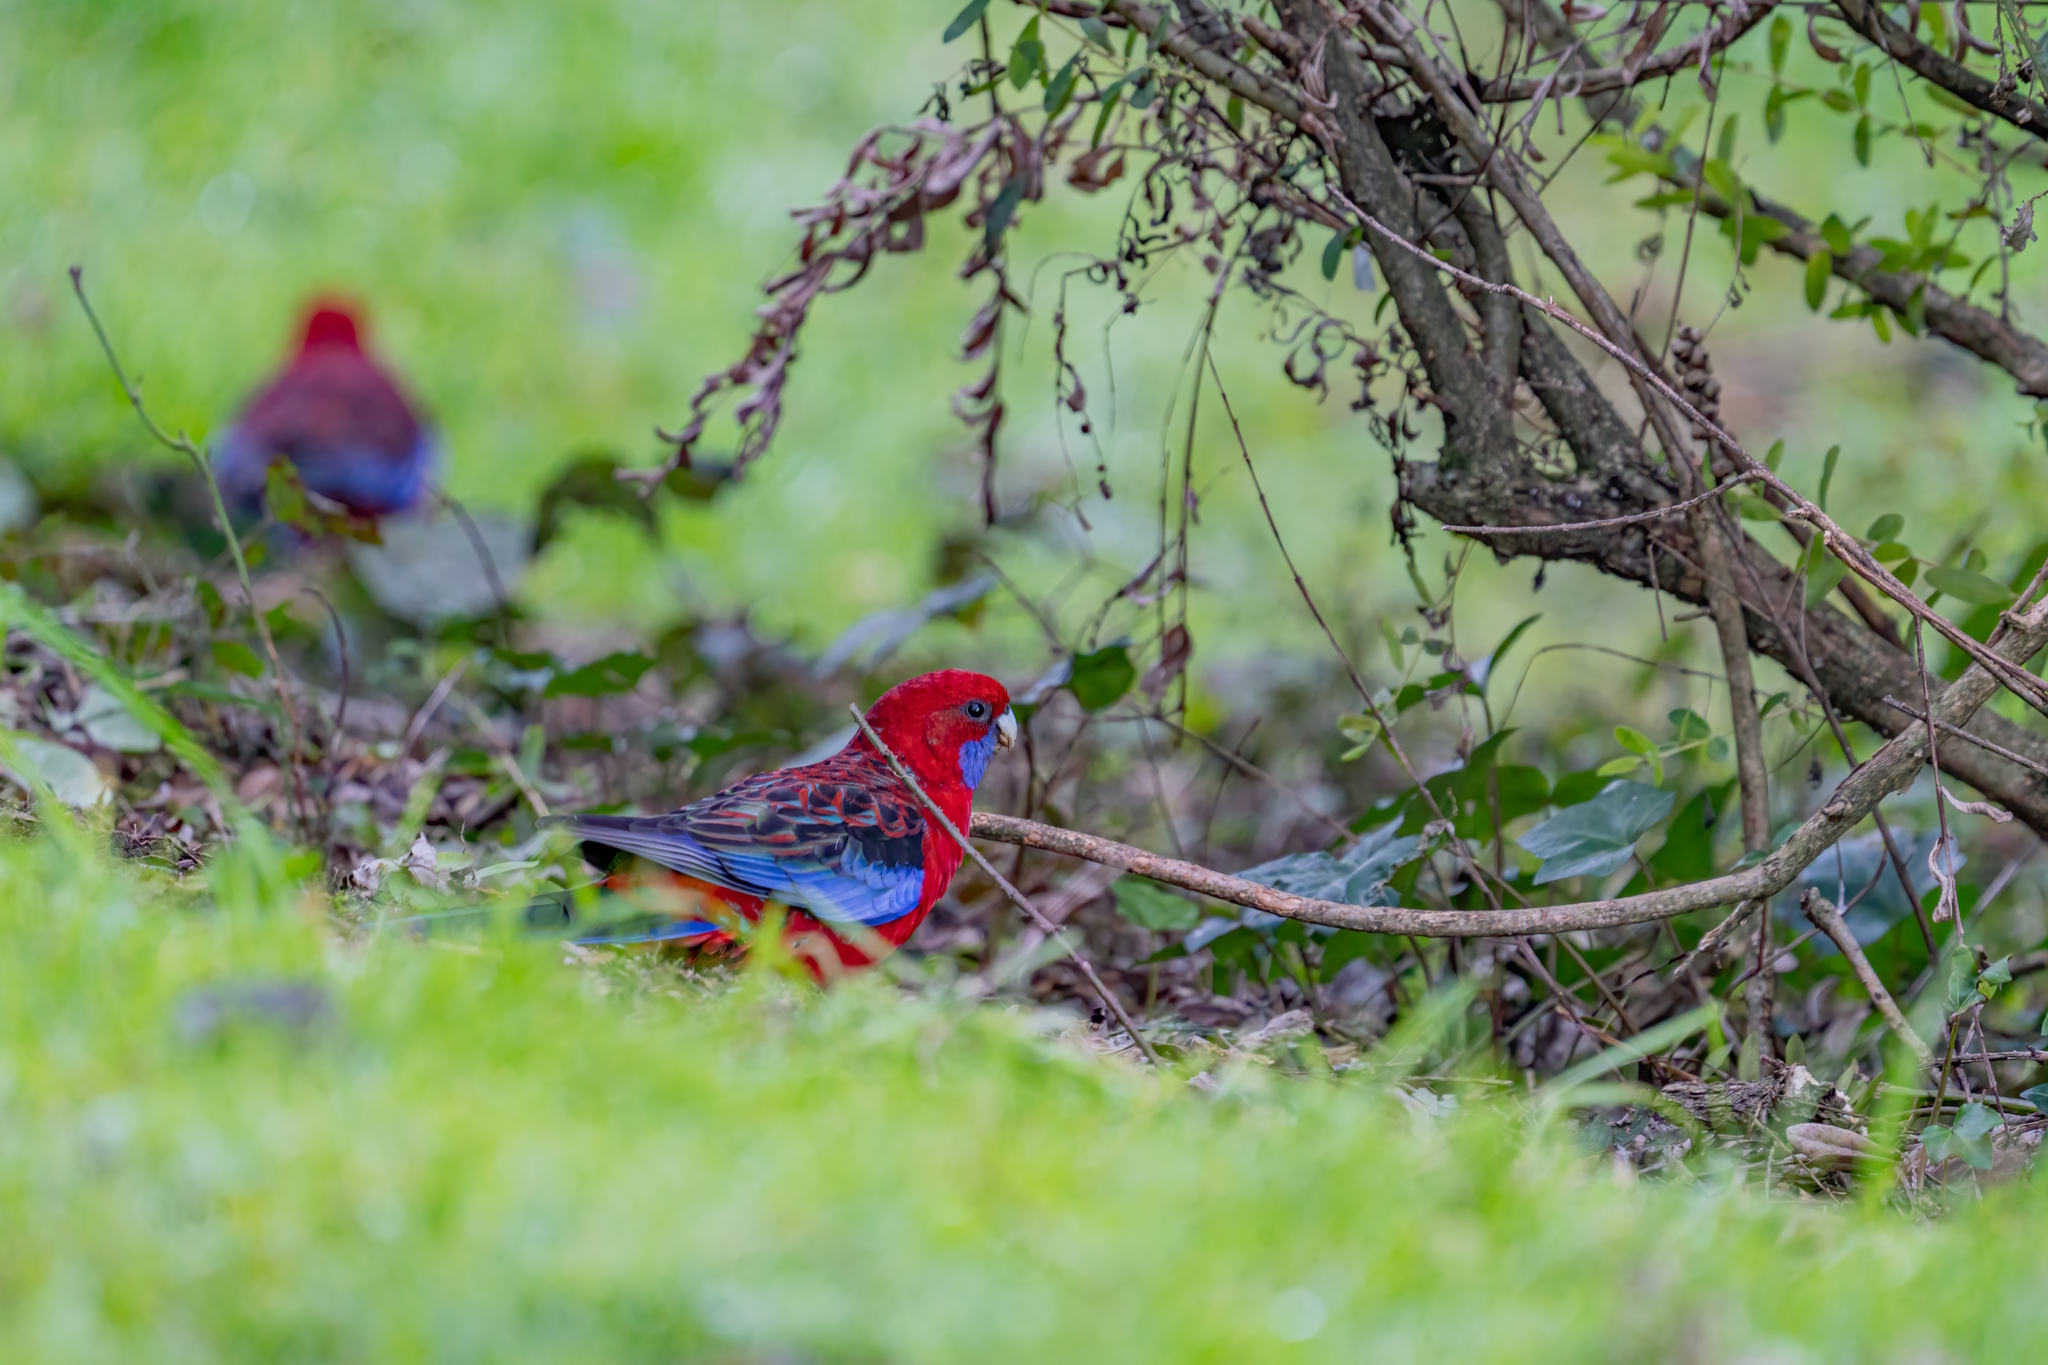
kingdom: Animalia
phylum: Chordata
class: Aves
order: Psittaciformes
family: Psittacidae
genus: Platycercus
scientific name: Platycercus elegans
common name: Crimson rosella
